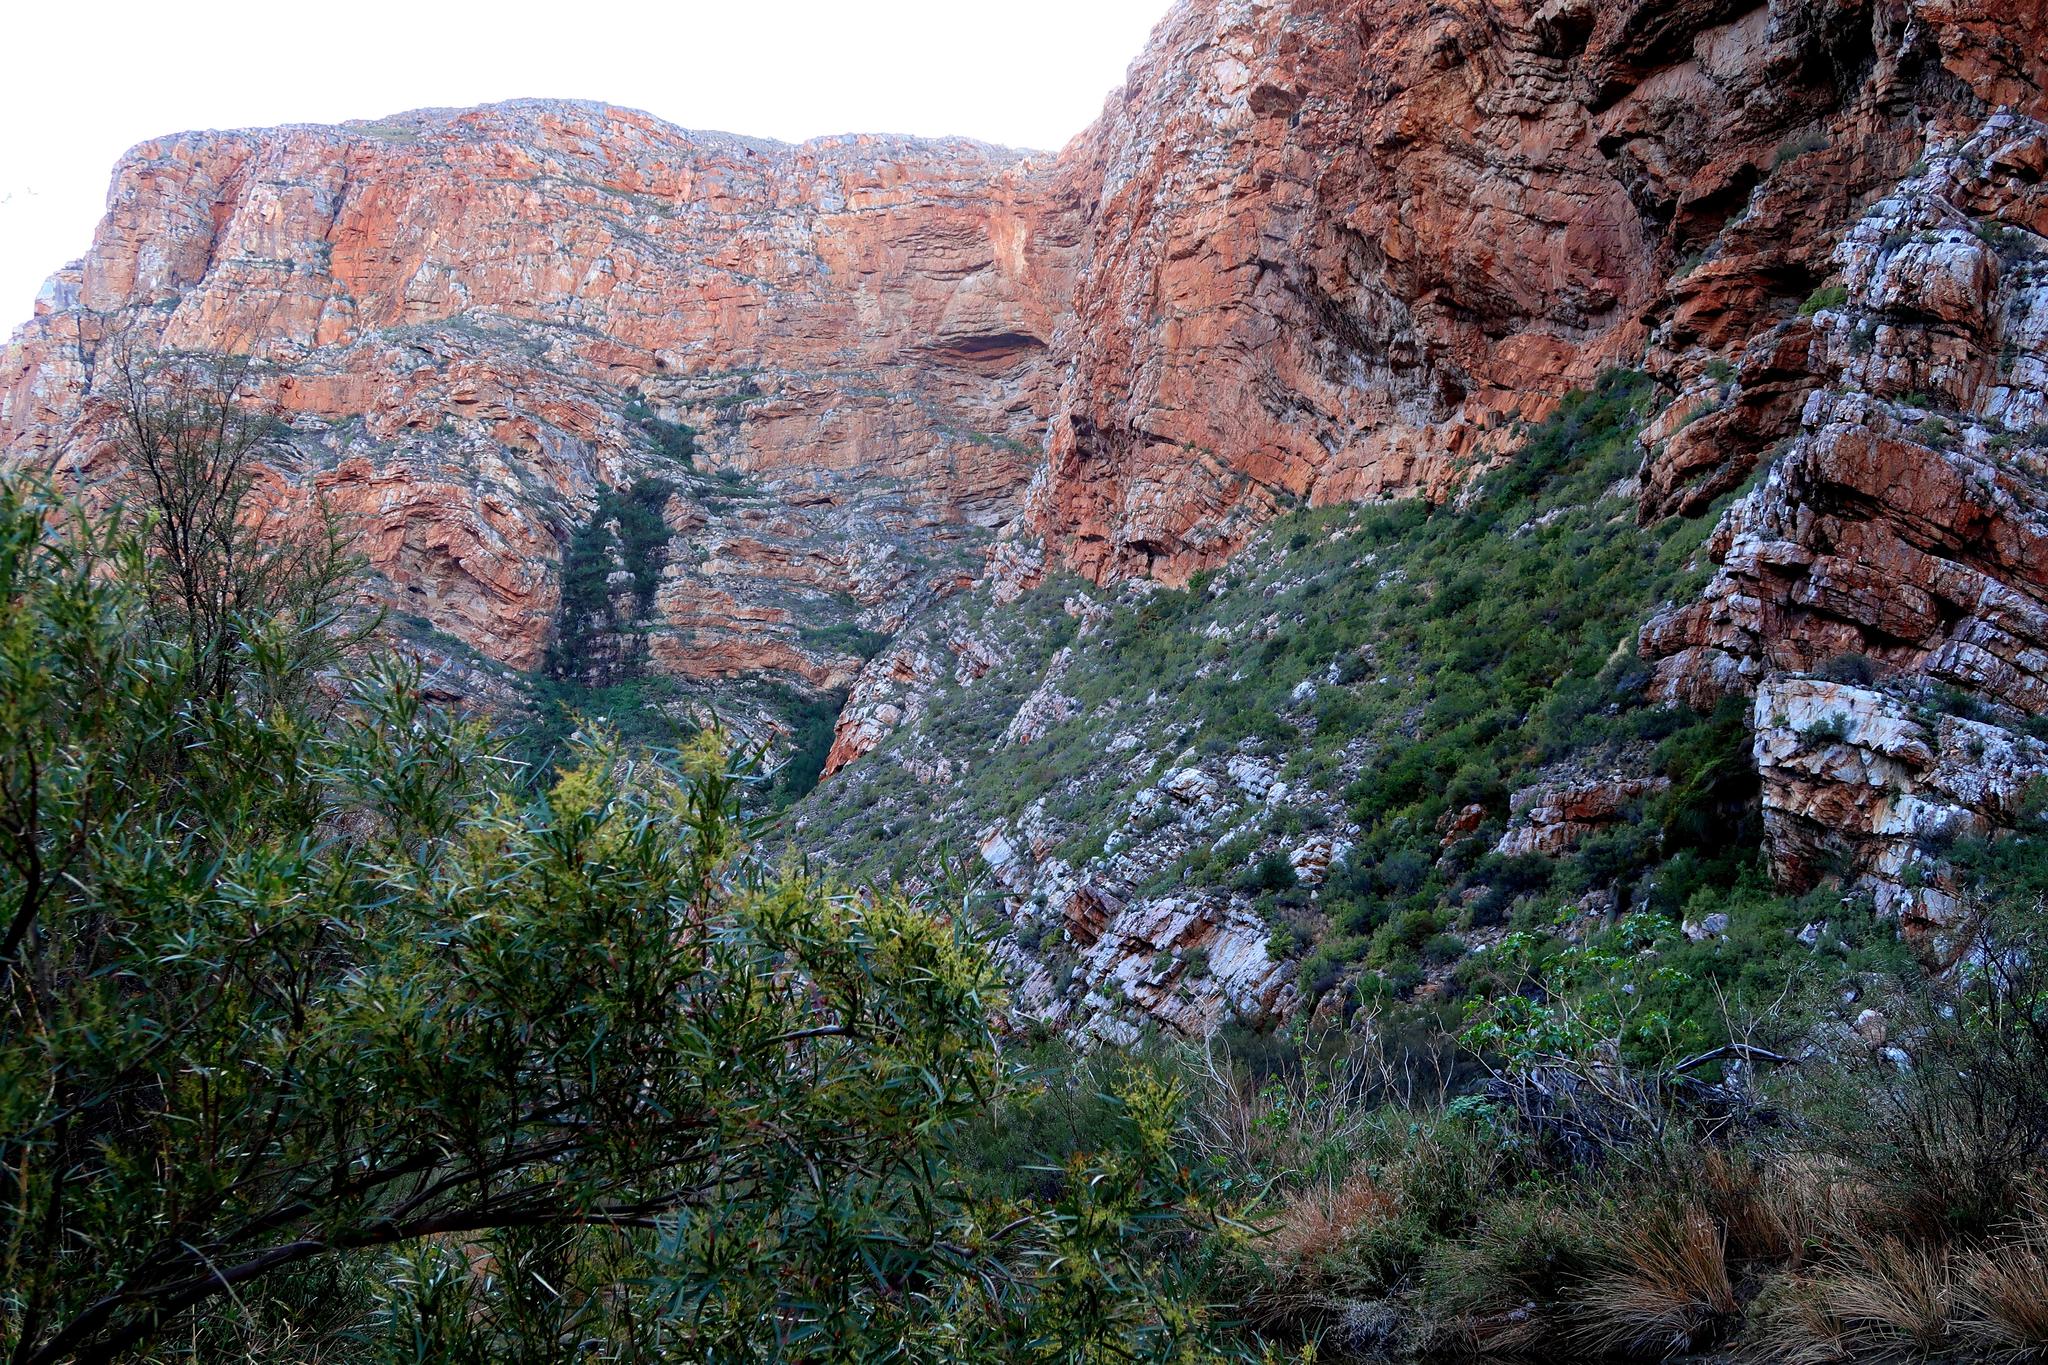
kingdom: Plantae
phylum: Tracheophyta
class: Magnoliopsida
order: Sapindales
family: Anacardiaceae
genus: Searsia
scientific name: Searsia lancea
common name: Cashew
